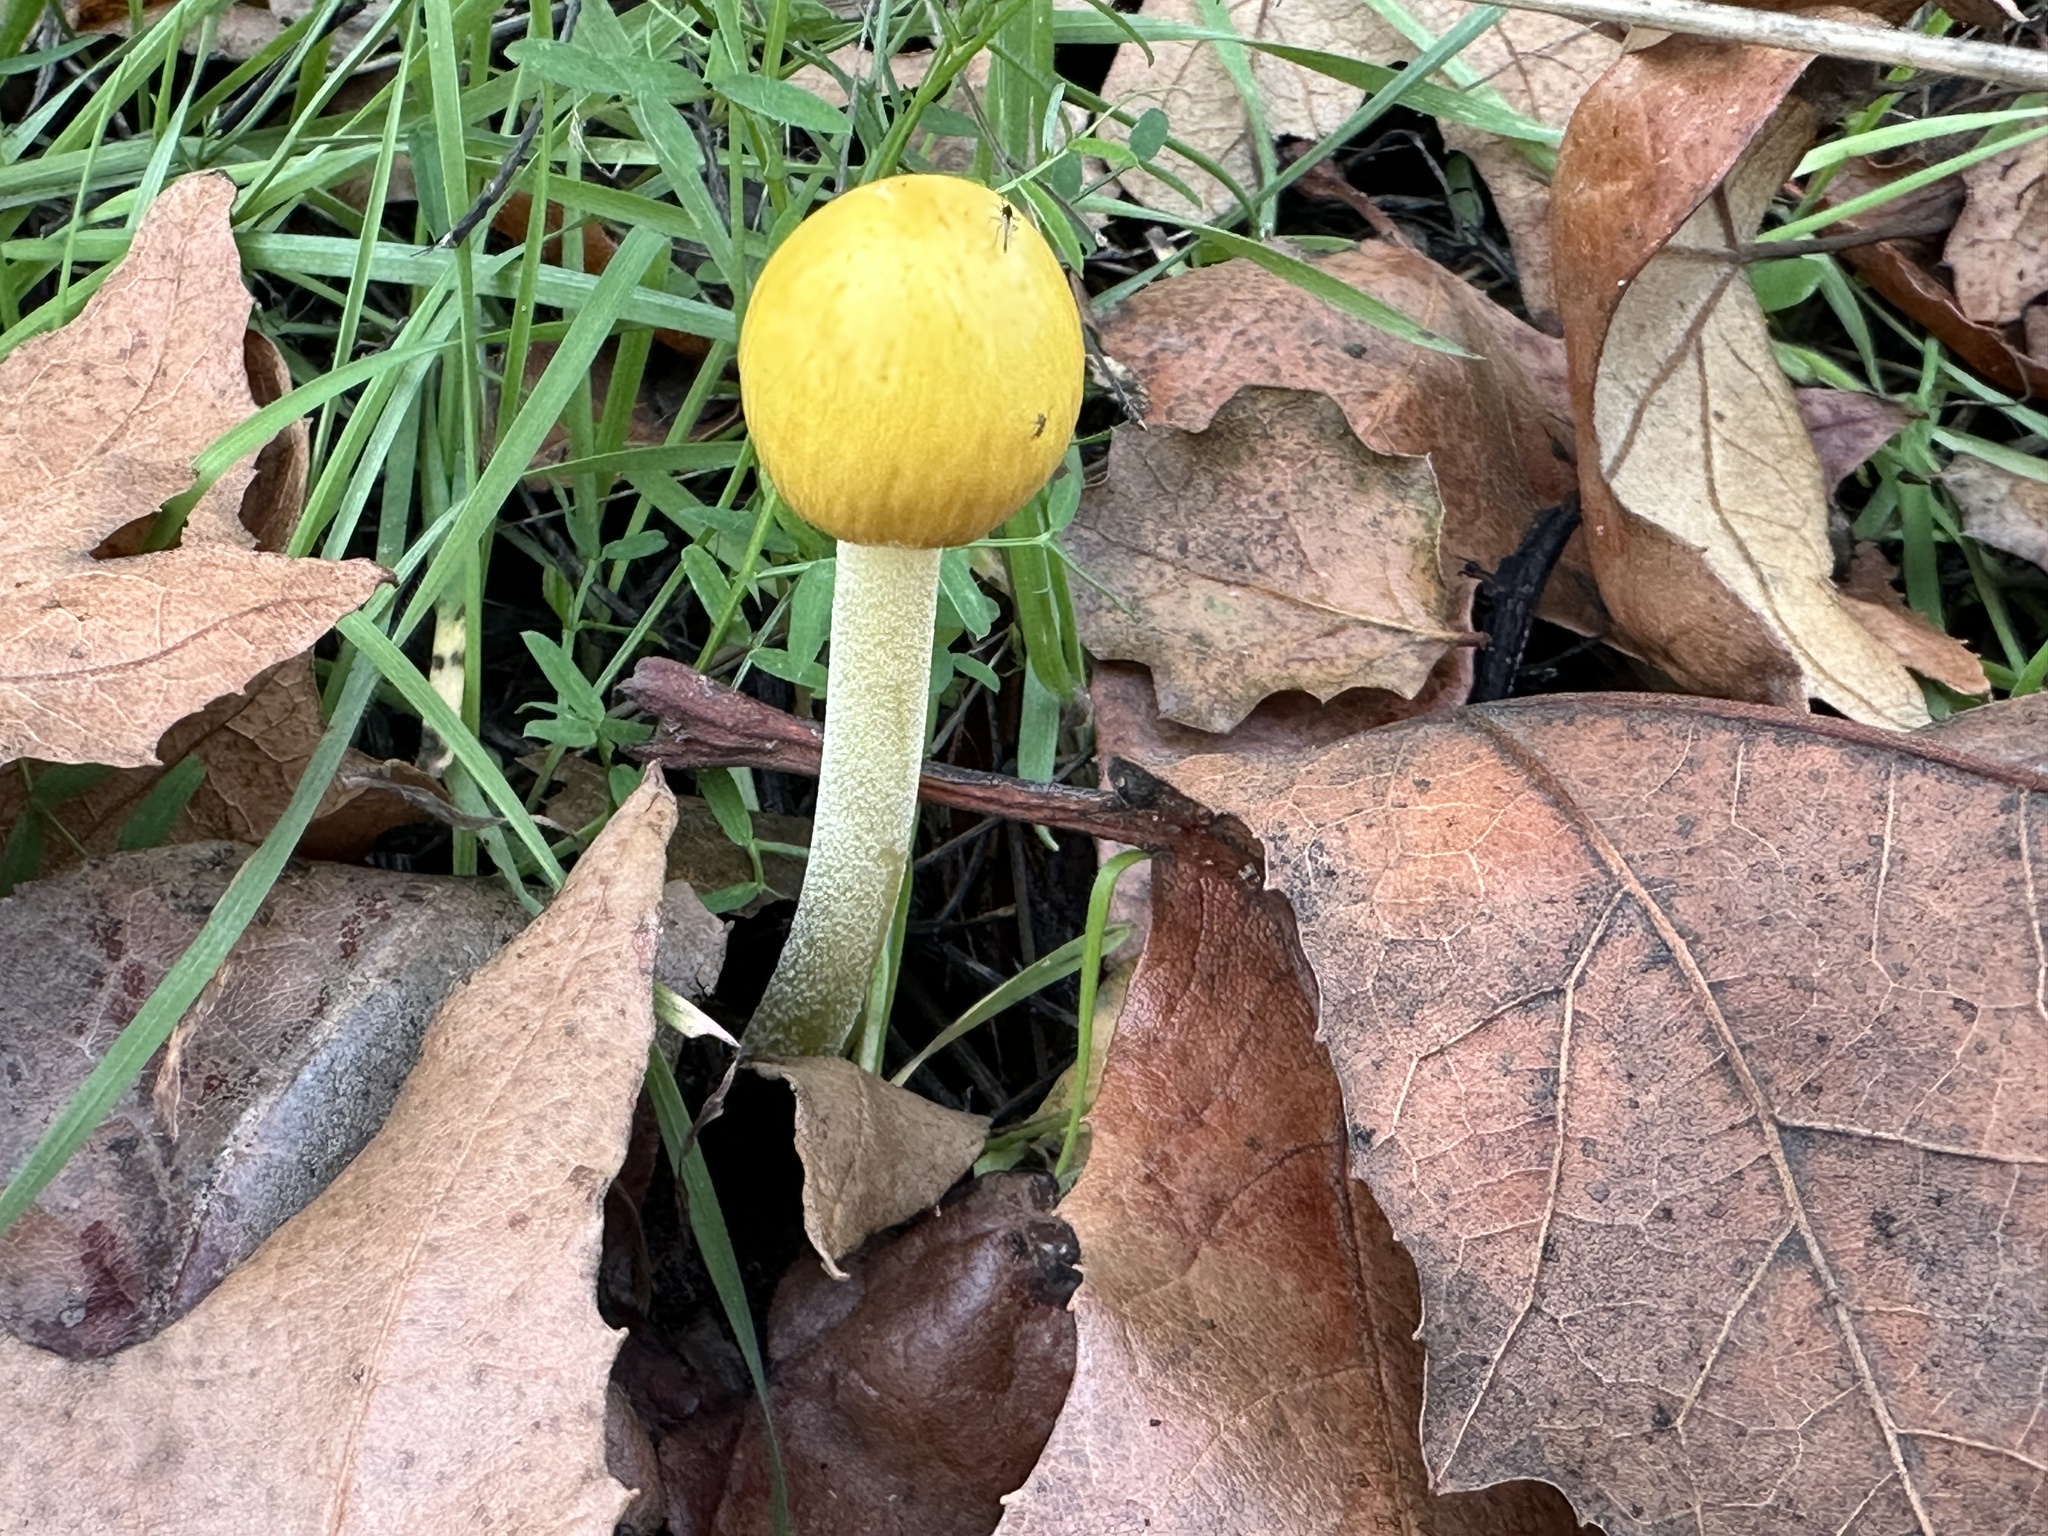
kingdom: Fungi
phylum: Basidiomycota
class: Agaricomycetes
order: Agaricales
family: Bolbitiaceae
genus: Bolbitius
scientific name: Bolbitius titubans
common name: Yellow fieldcap
